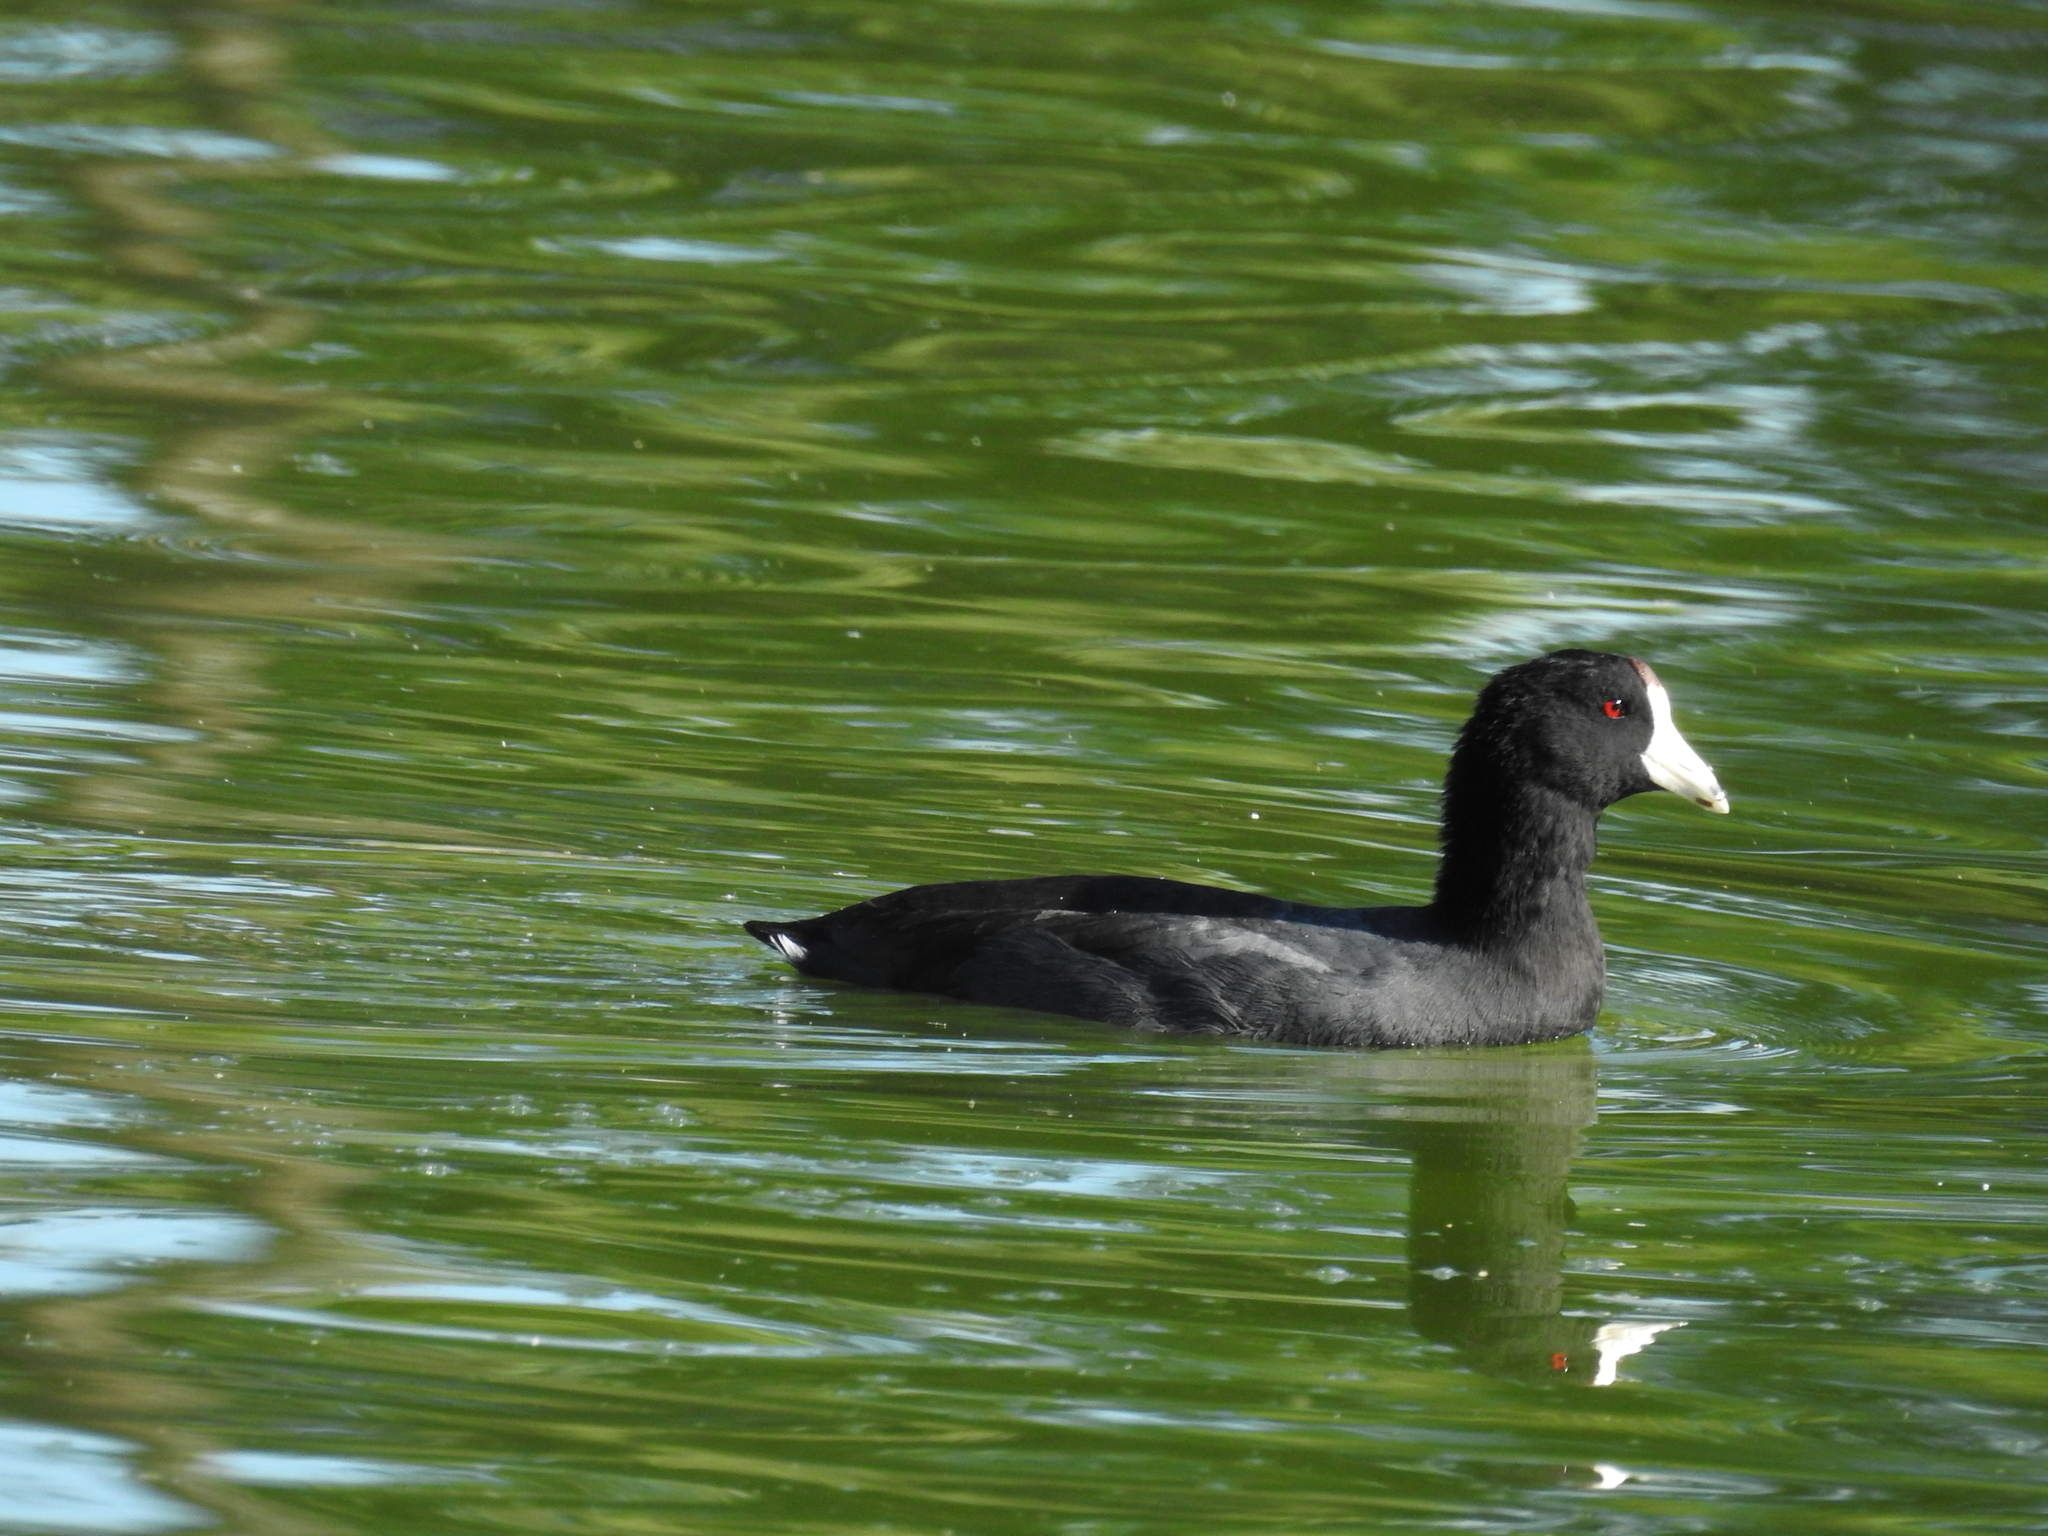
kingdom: Animalia
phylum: Chordata
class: Aves
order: Gruiformes
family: Rallidae
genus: Fulica
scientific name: Fulica americana
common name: American coot
